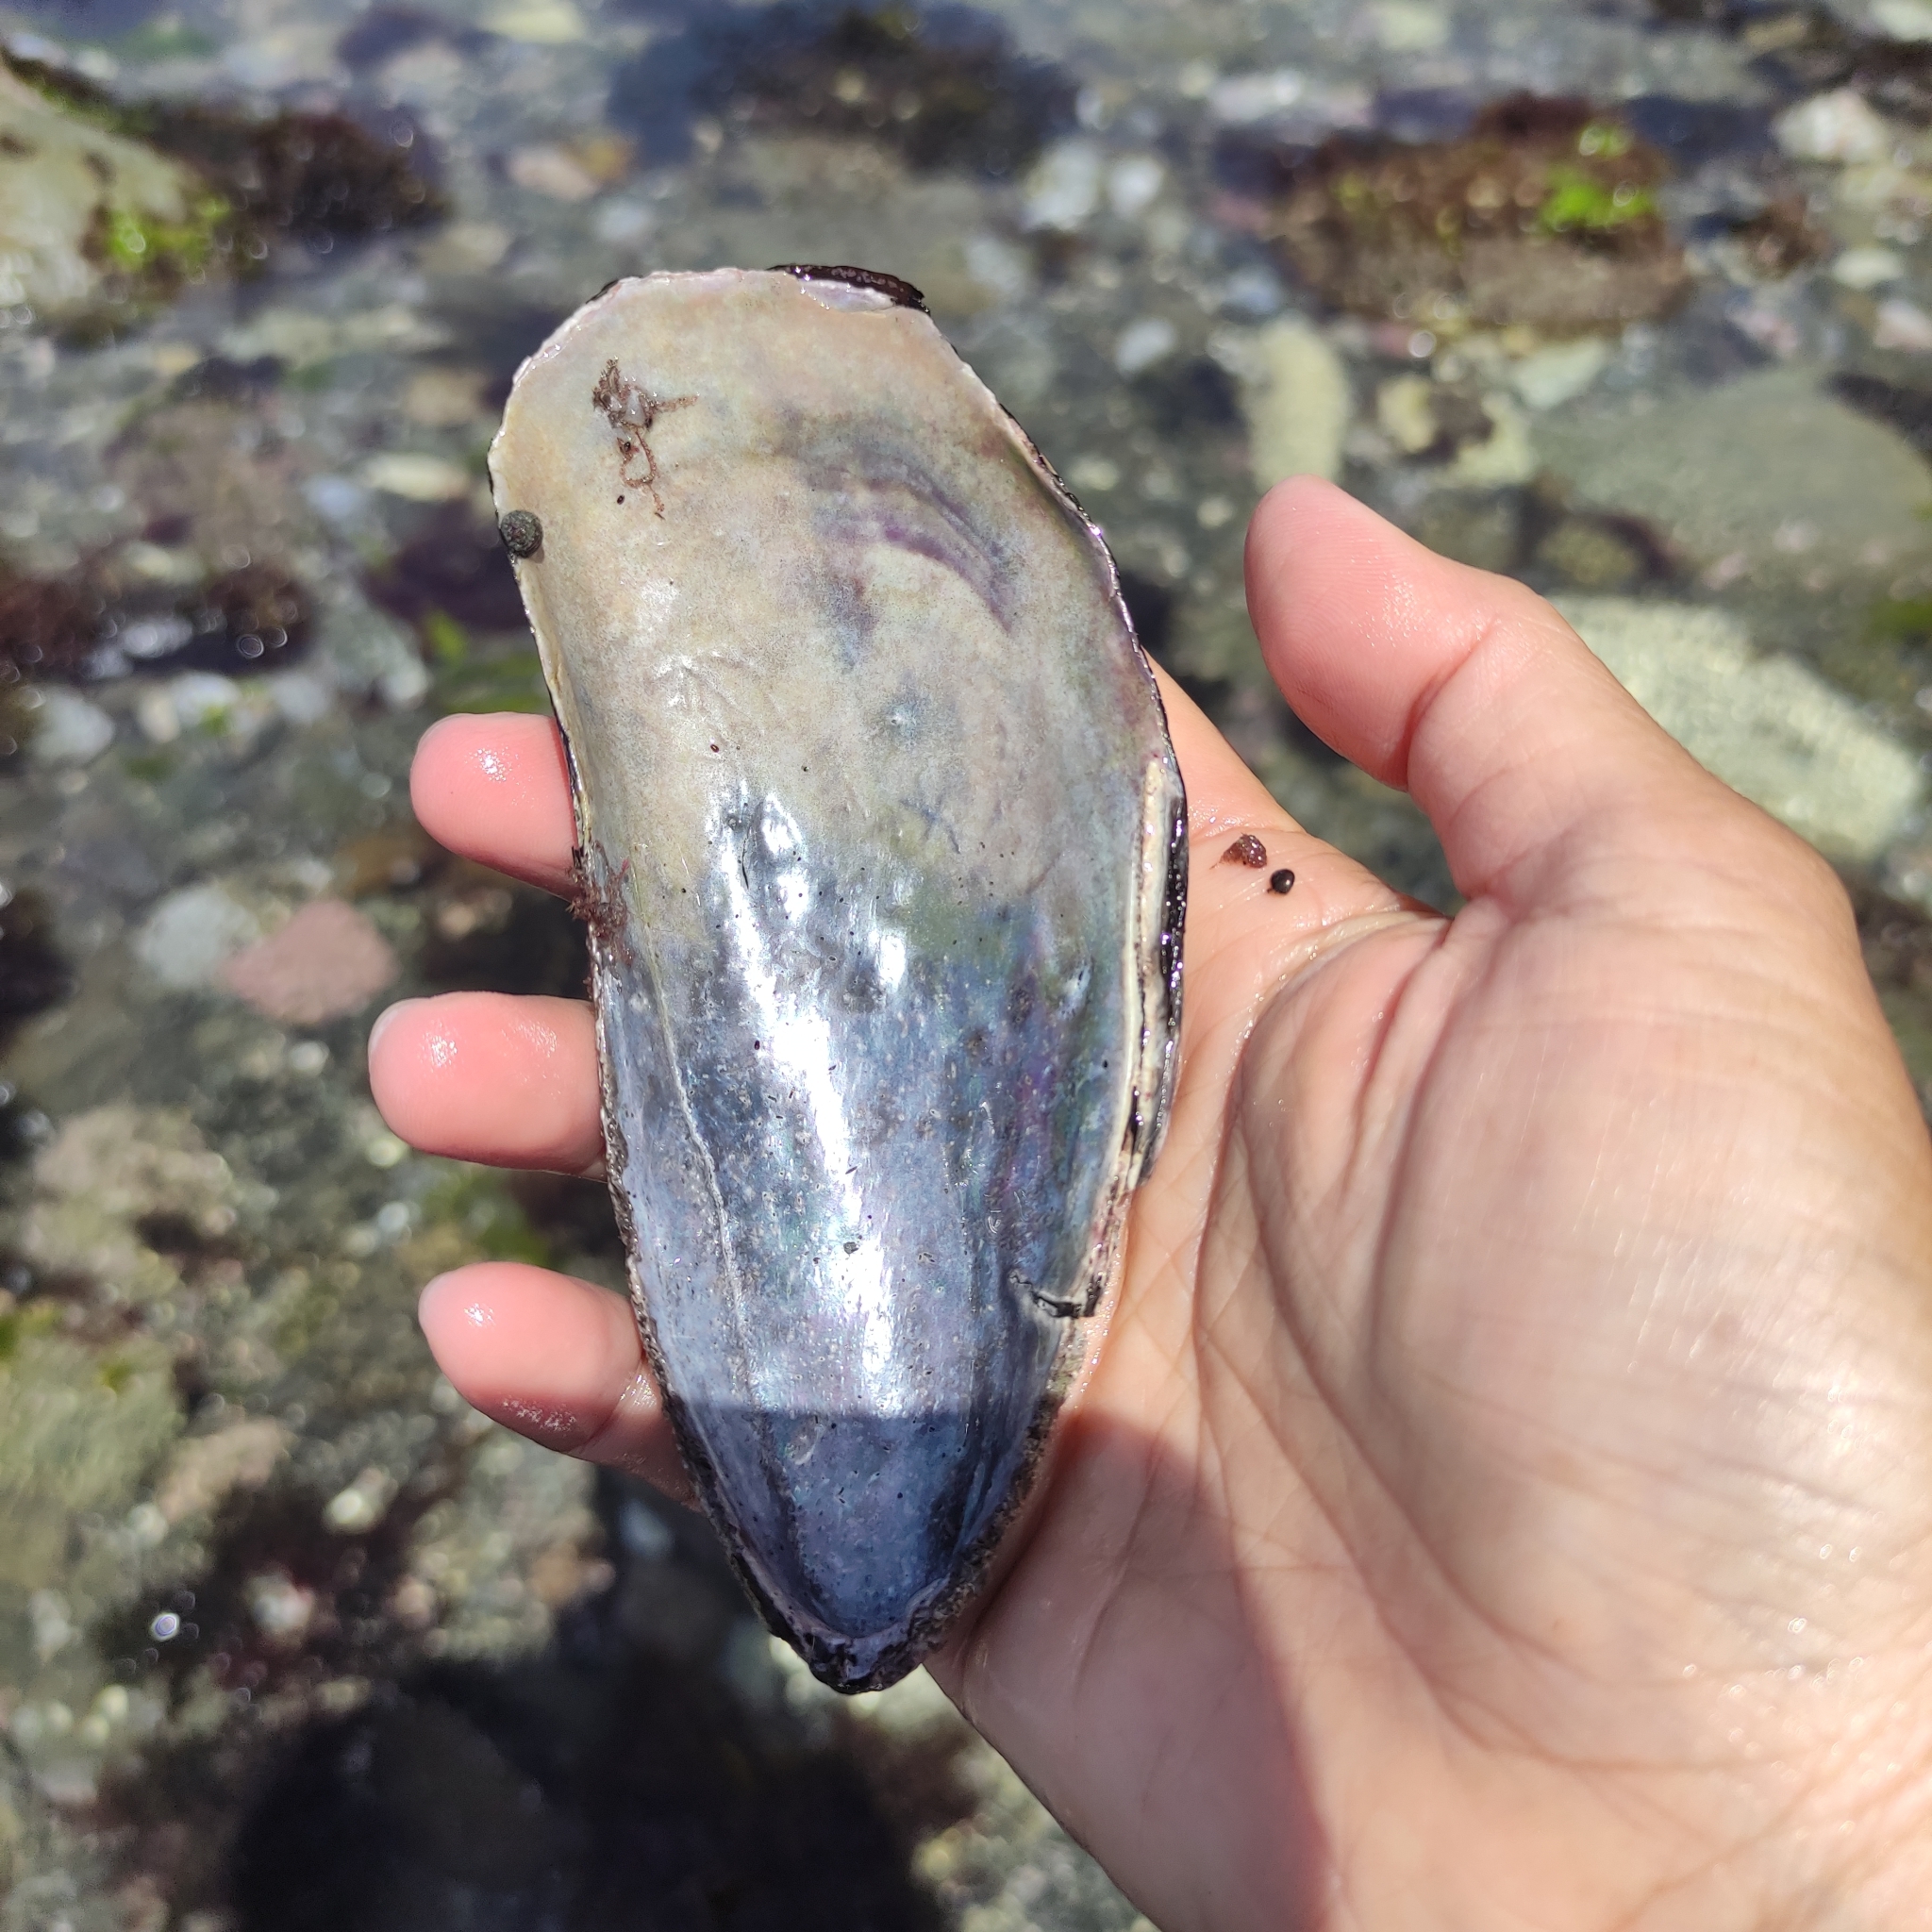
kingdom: Animalia
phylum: Mollusca
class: Bivalvia
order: Mytilida
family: Mytilidae
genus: Perna
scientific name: Perna canaliculus
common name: New zealand greenshelltm
